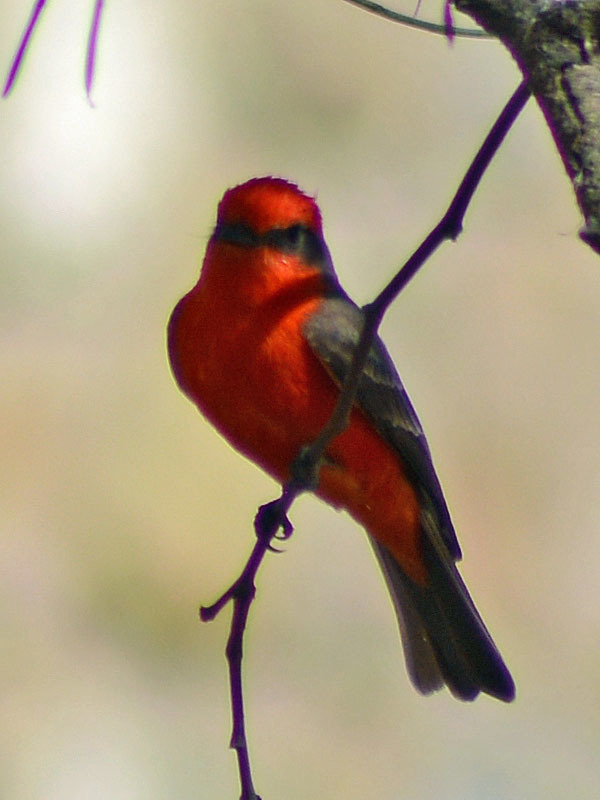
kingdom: Animalia
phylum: Chordata
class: Aves
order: Passeriformes
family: Tyrannidae
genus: Pyrocephalus
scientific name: Pyrocephalus rubinus
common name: Vermilion flycatcher
